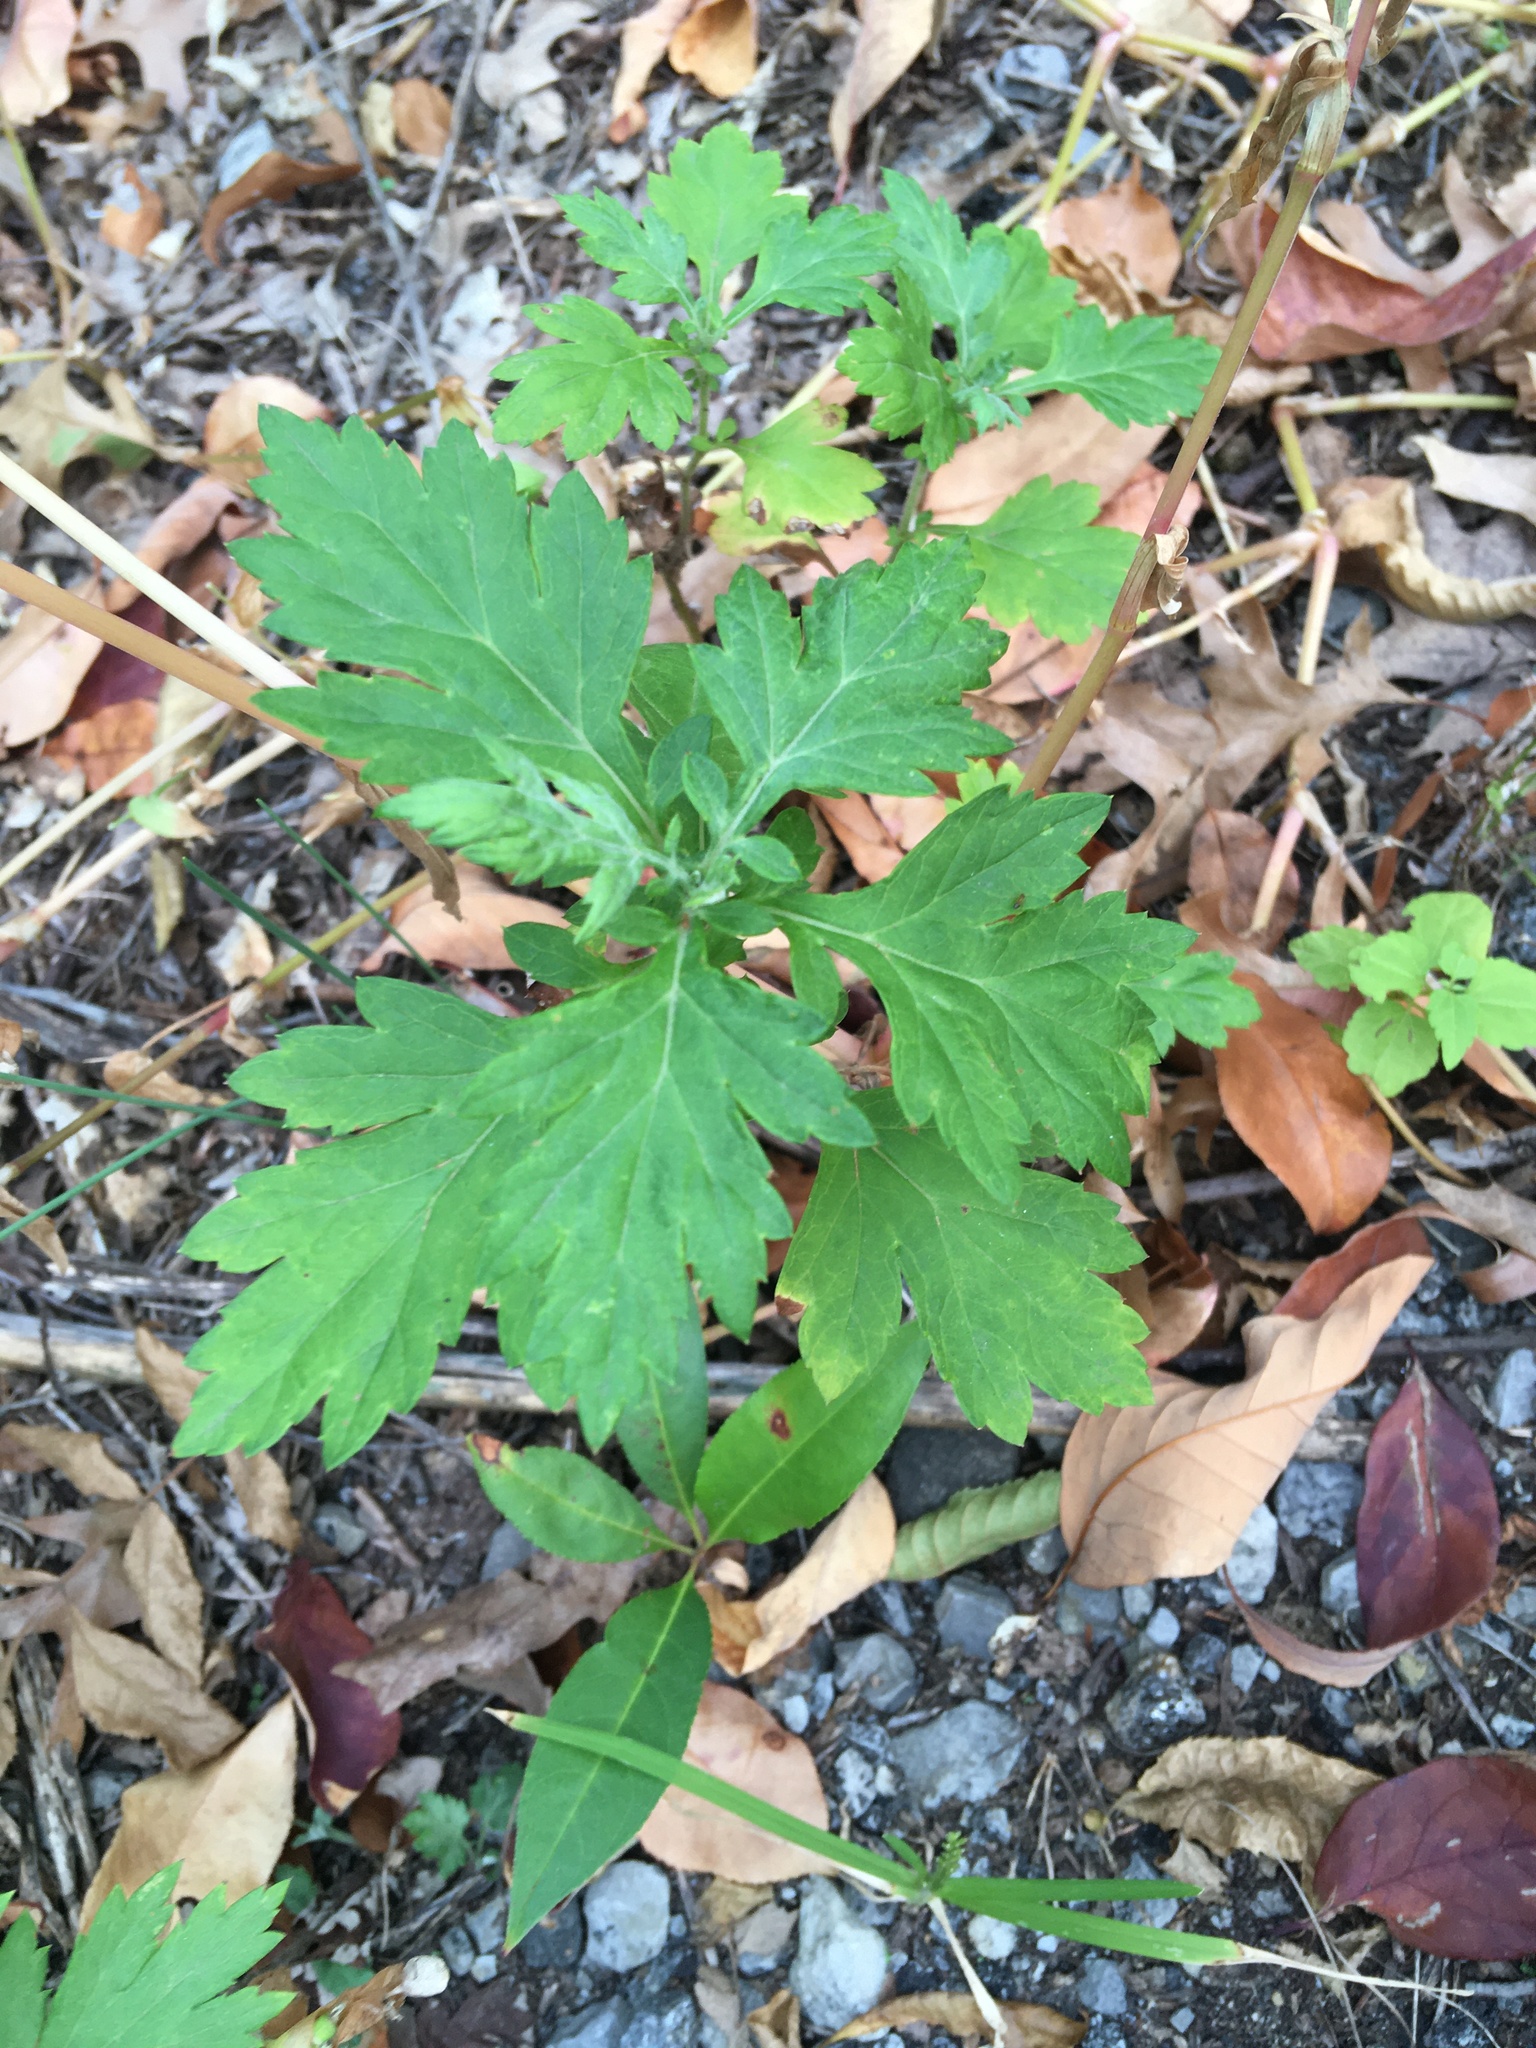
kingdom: Plantae
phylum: Tracheophyta
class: Magnoliopsida
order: Asterales
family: Asteraceae
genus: Artemisia
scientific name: Artemisia vulgaris
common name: Mugwort
